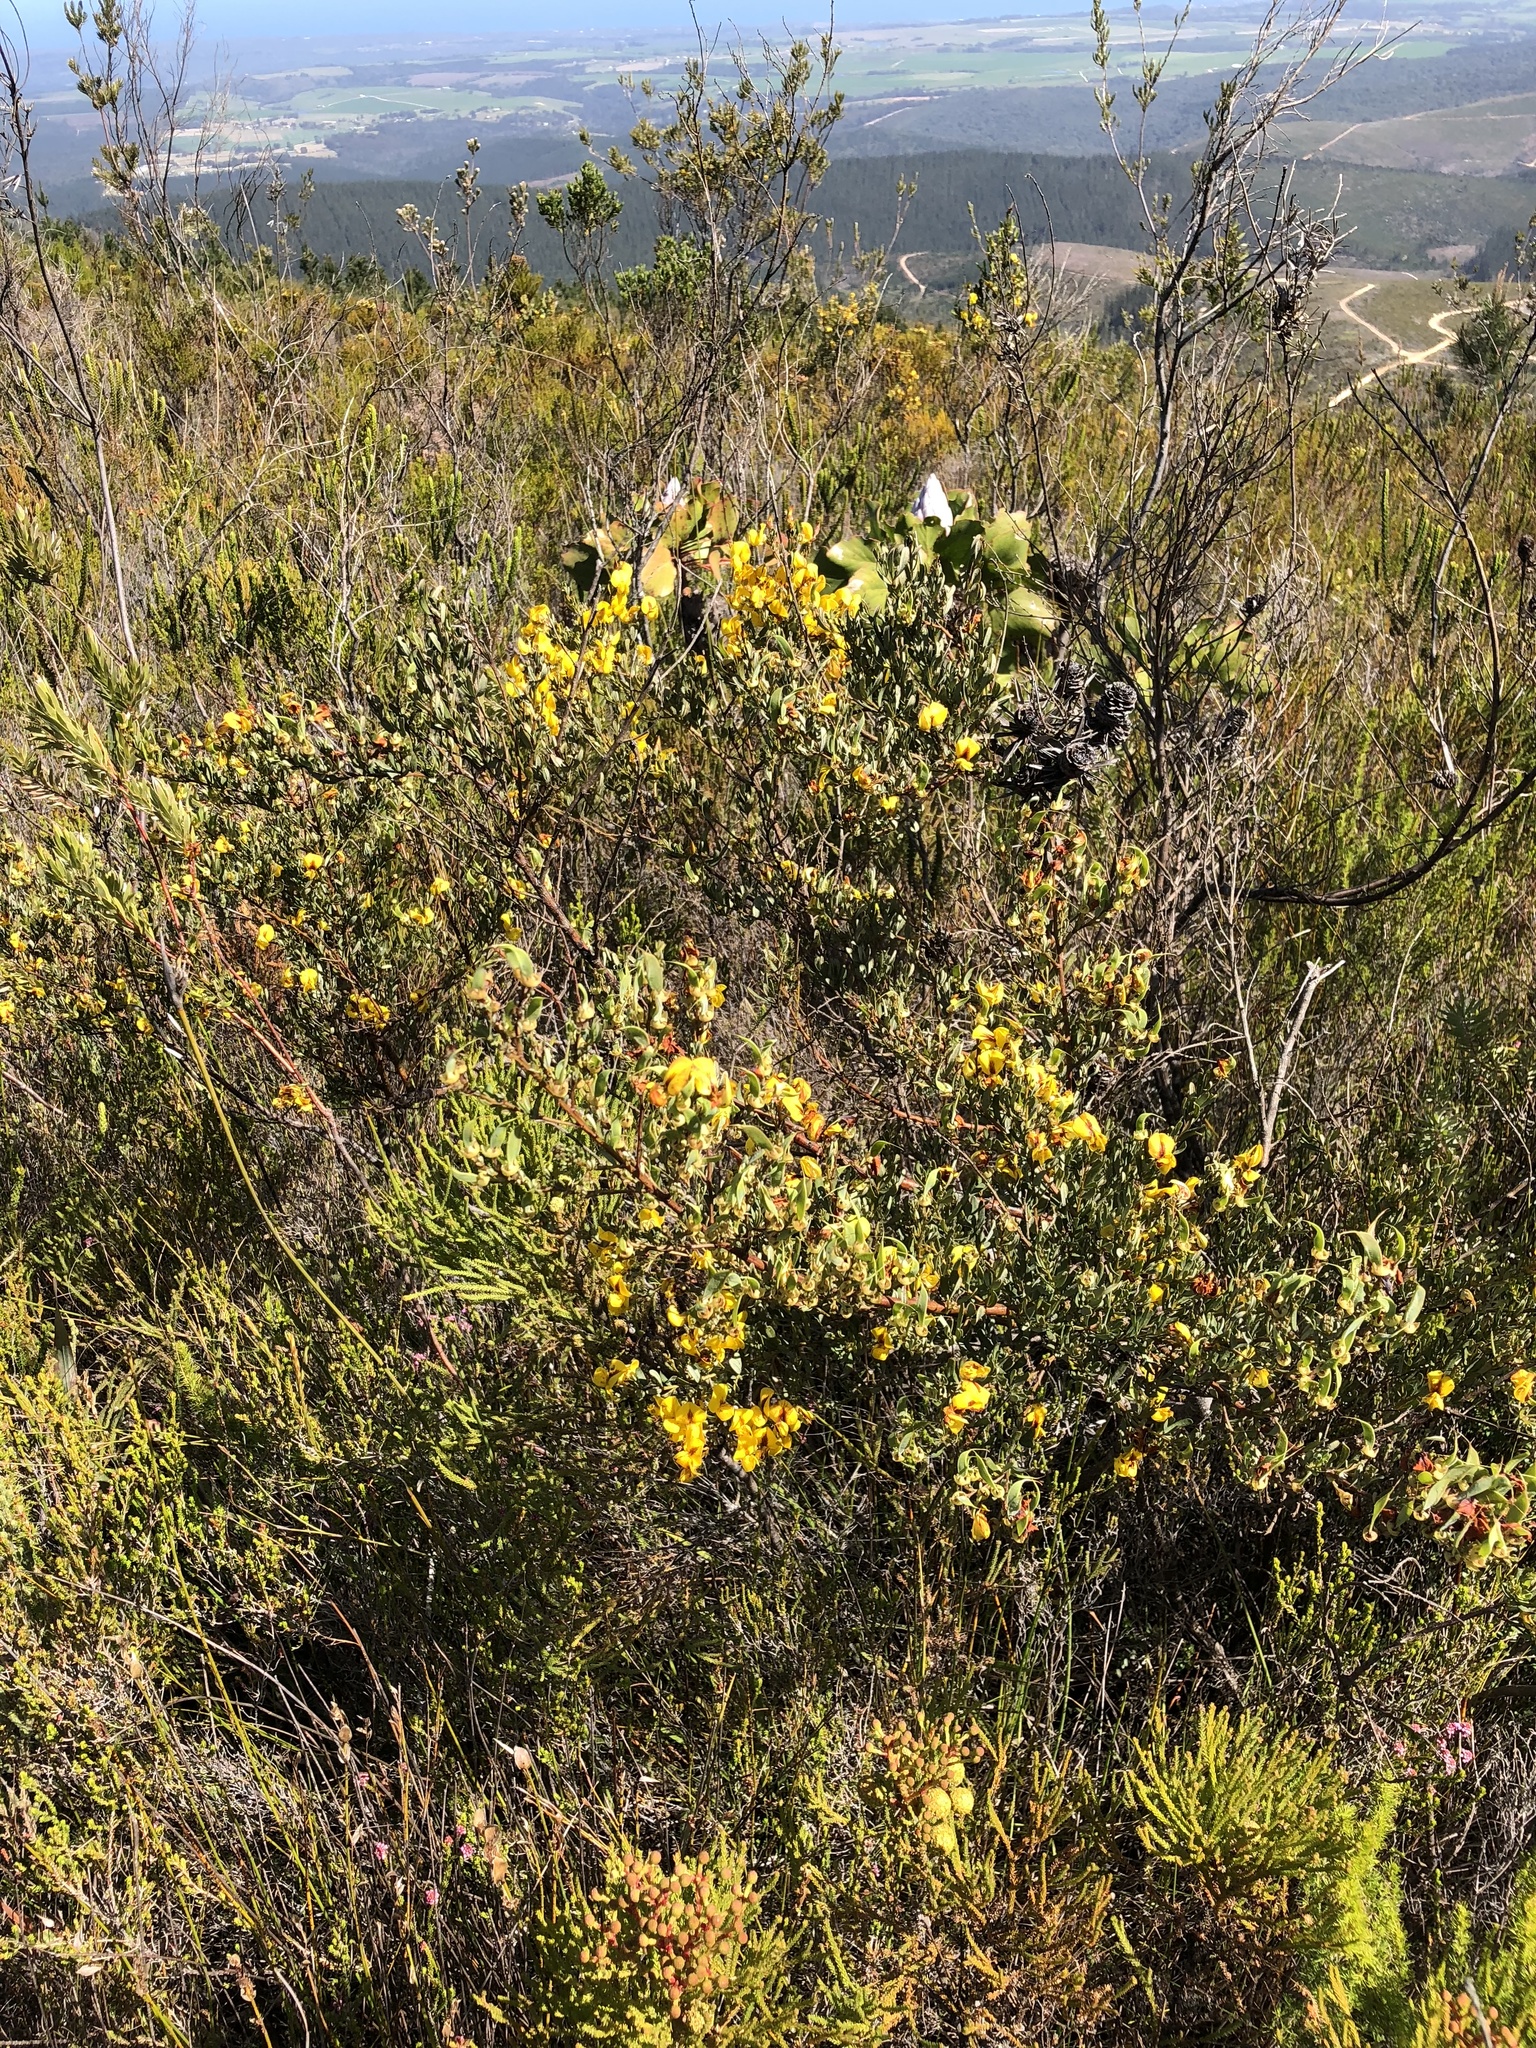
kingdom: Plantae
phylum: Tracheophyta
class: Magnoliopsida
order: Fabales
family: Fabaceae
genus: Cyclopia
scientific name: Cyclopia intermedia
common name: Mountain tea
